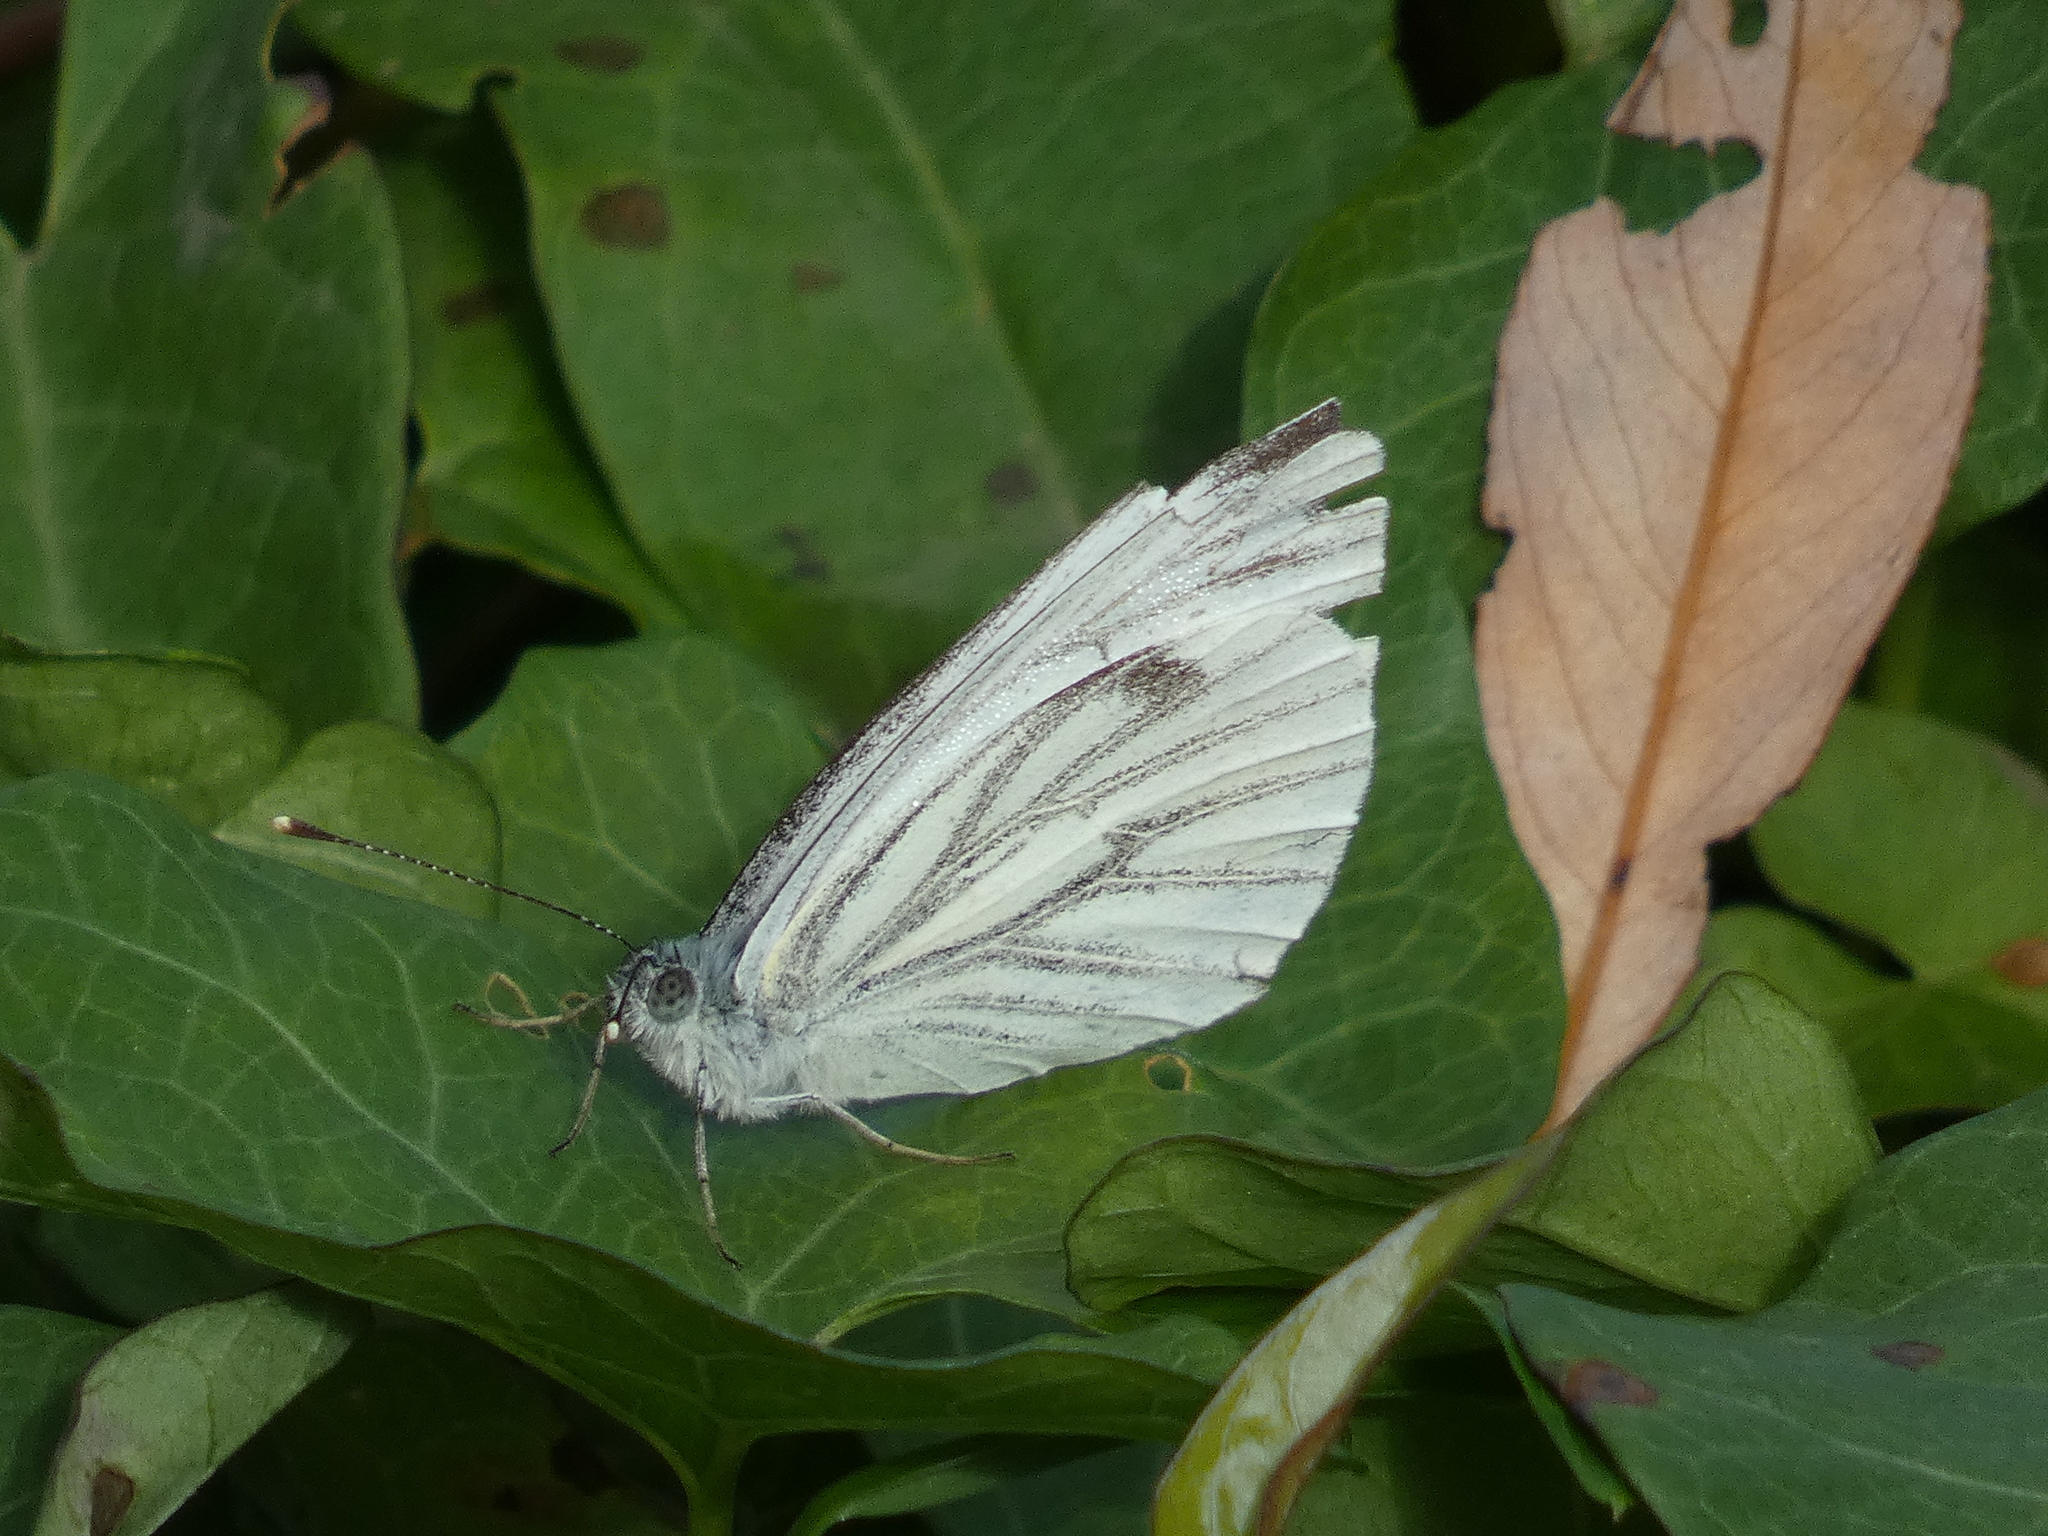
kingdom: Animalia
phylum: Arthropoda
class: Insecta
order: Lepidoptera
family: Pieridae
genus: Pieris
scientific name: Pieris napi
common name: Green-veined white
